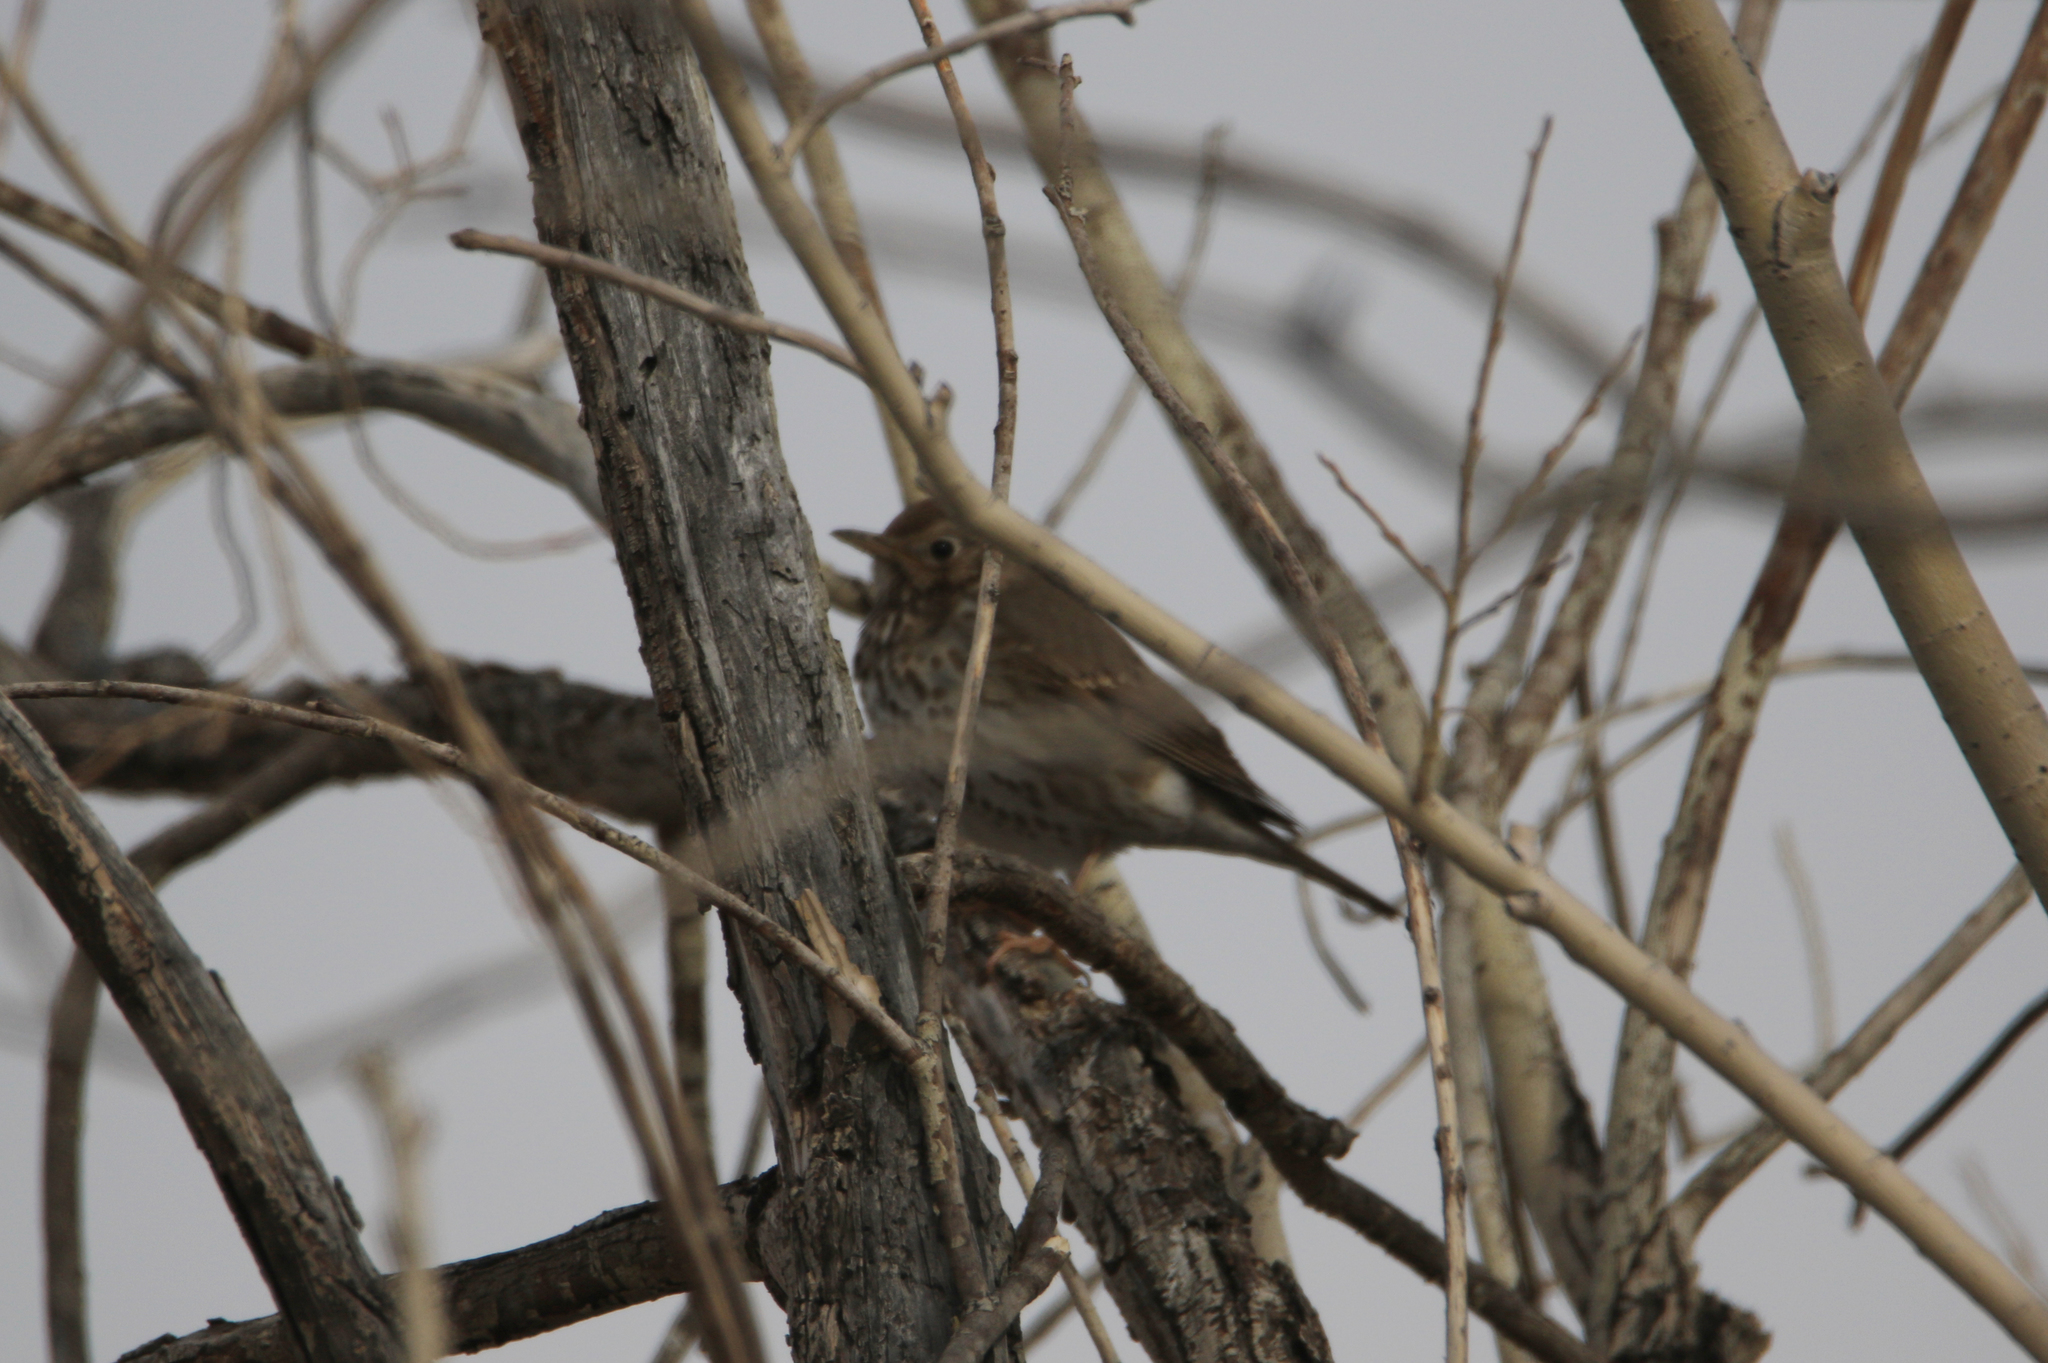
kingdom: Animalia
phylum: Chordata
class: Aves
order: Passeriformes
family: Turdidae
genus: Turdus
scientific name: Turdus philomelos
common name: Song thrush
